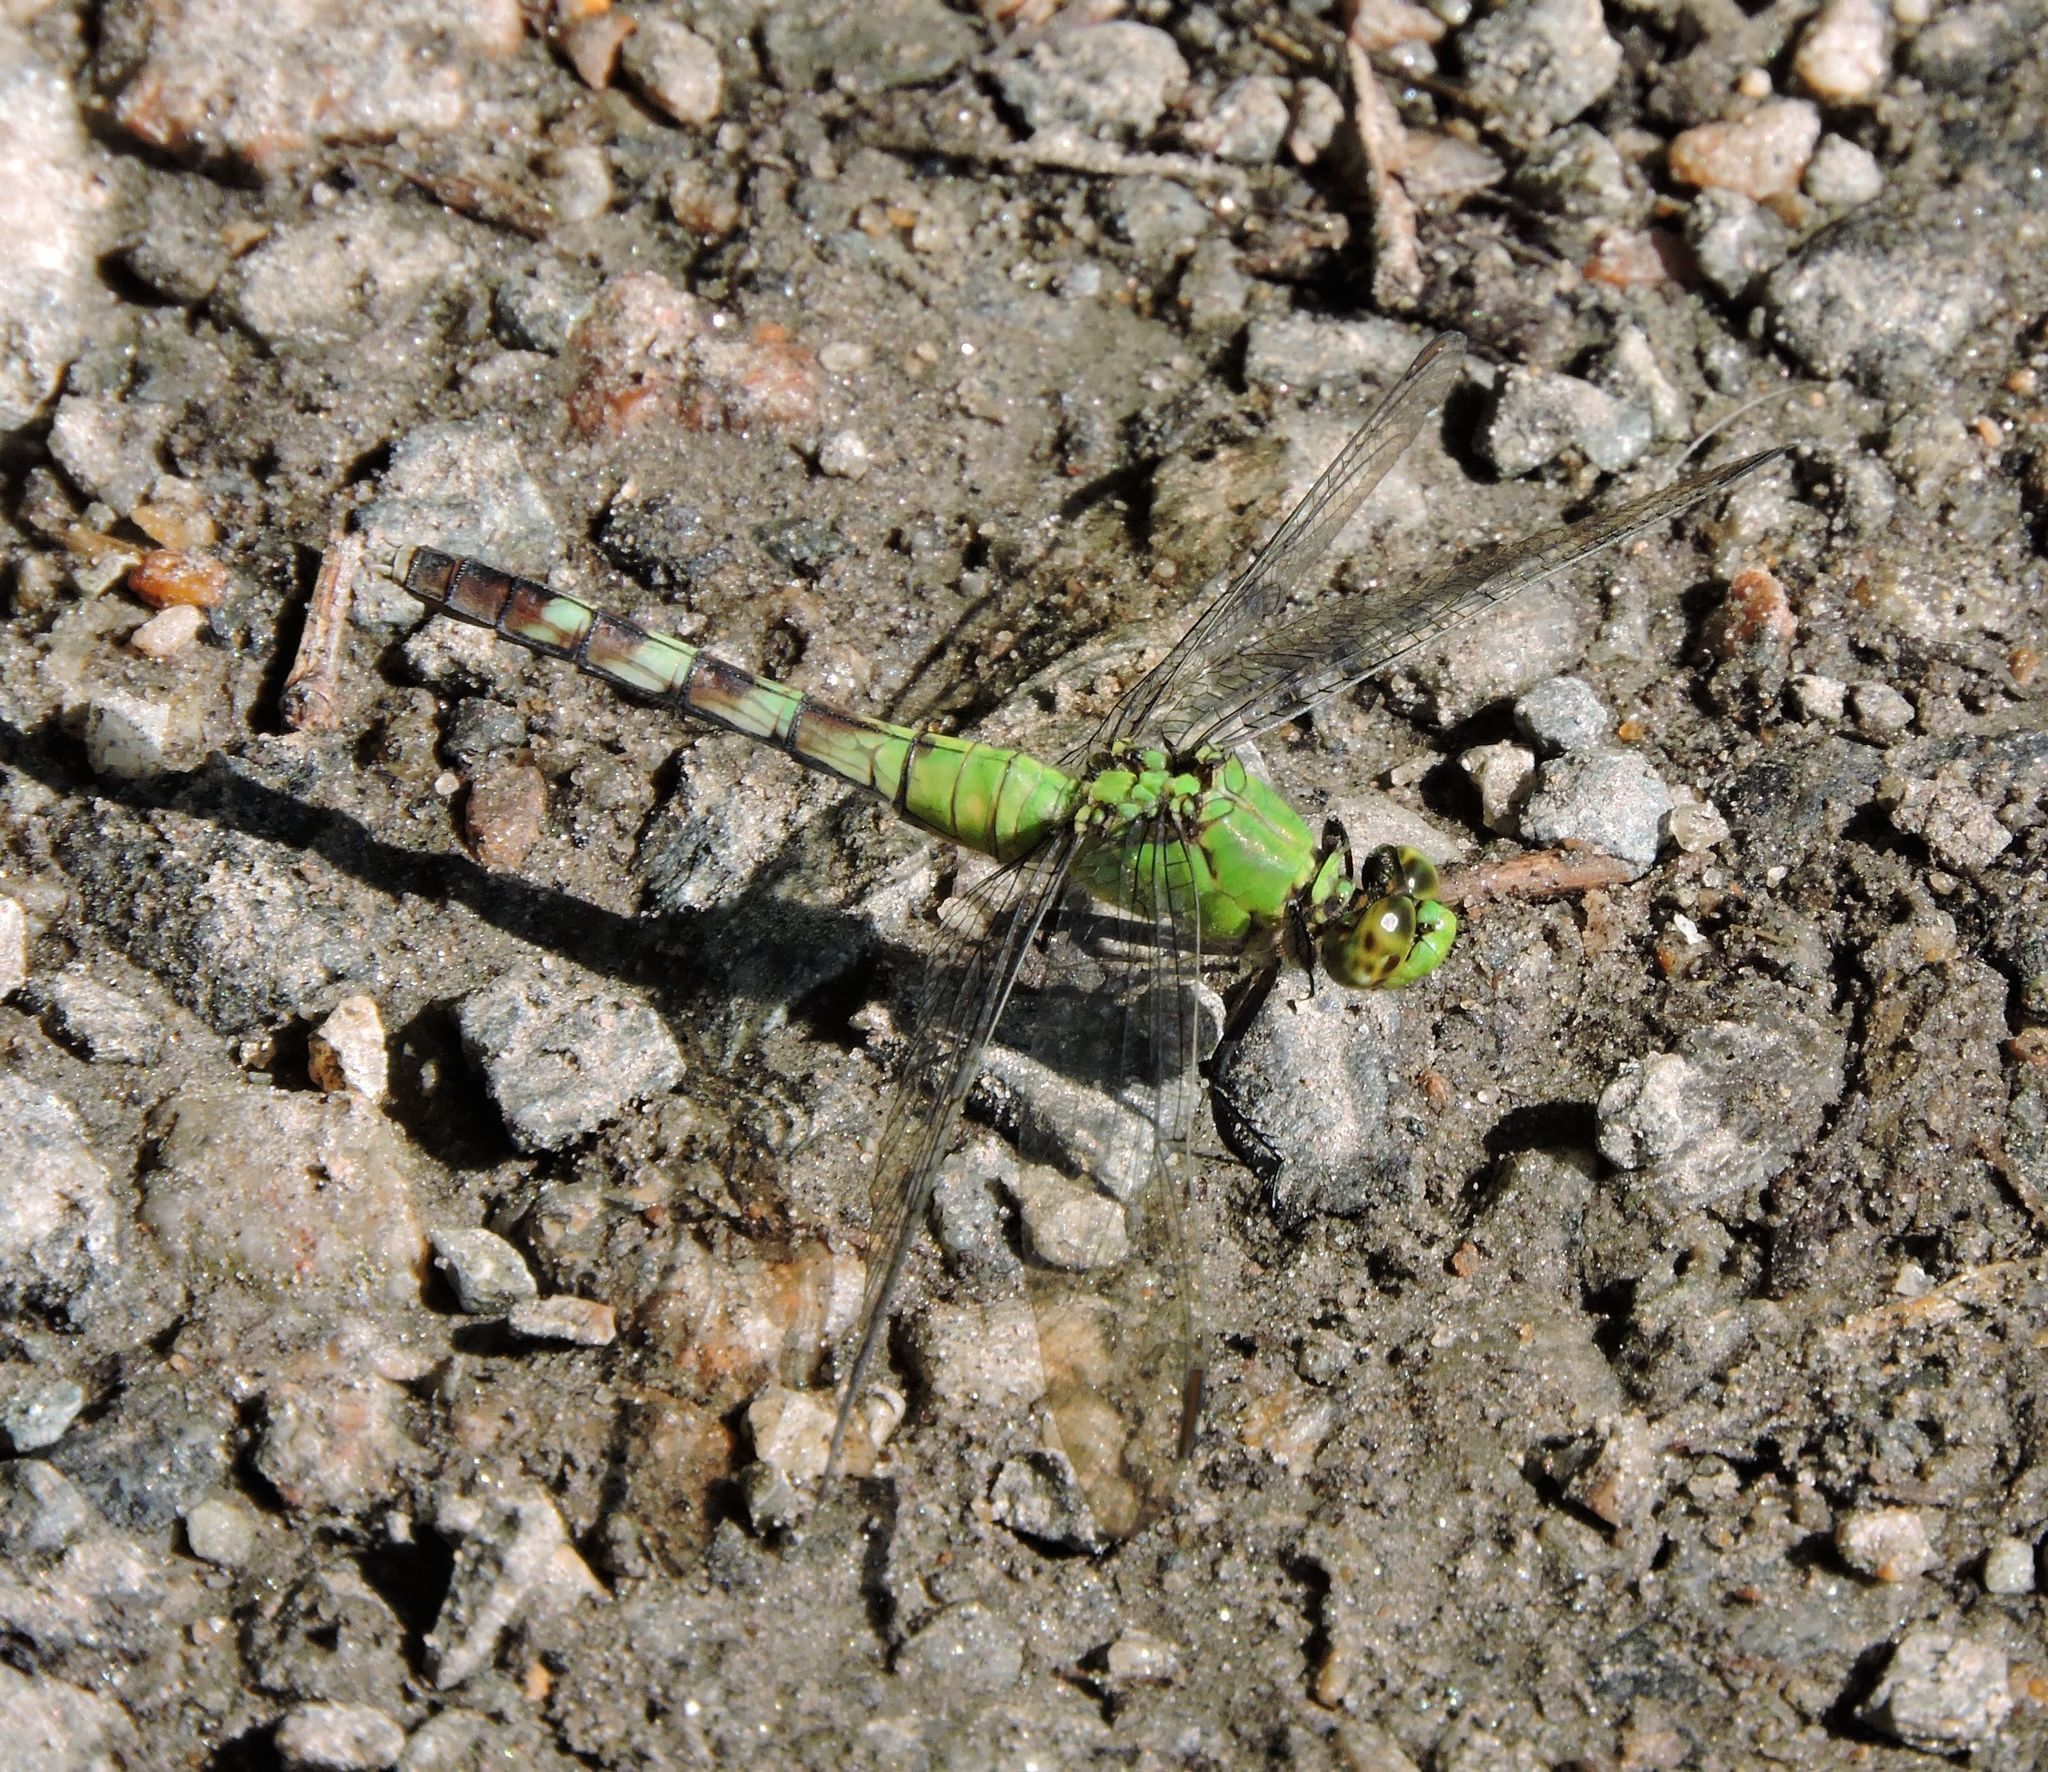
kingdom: Animalia
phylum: Arthropoda
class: Insecta
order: Odonata
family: Libellulidae
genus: Erythemis
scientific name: Erythemis simplicicollis
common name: Eastern pondhawk
